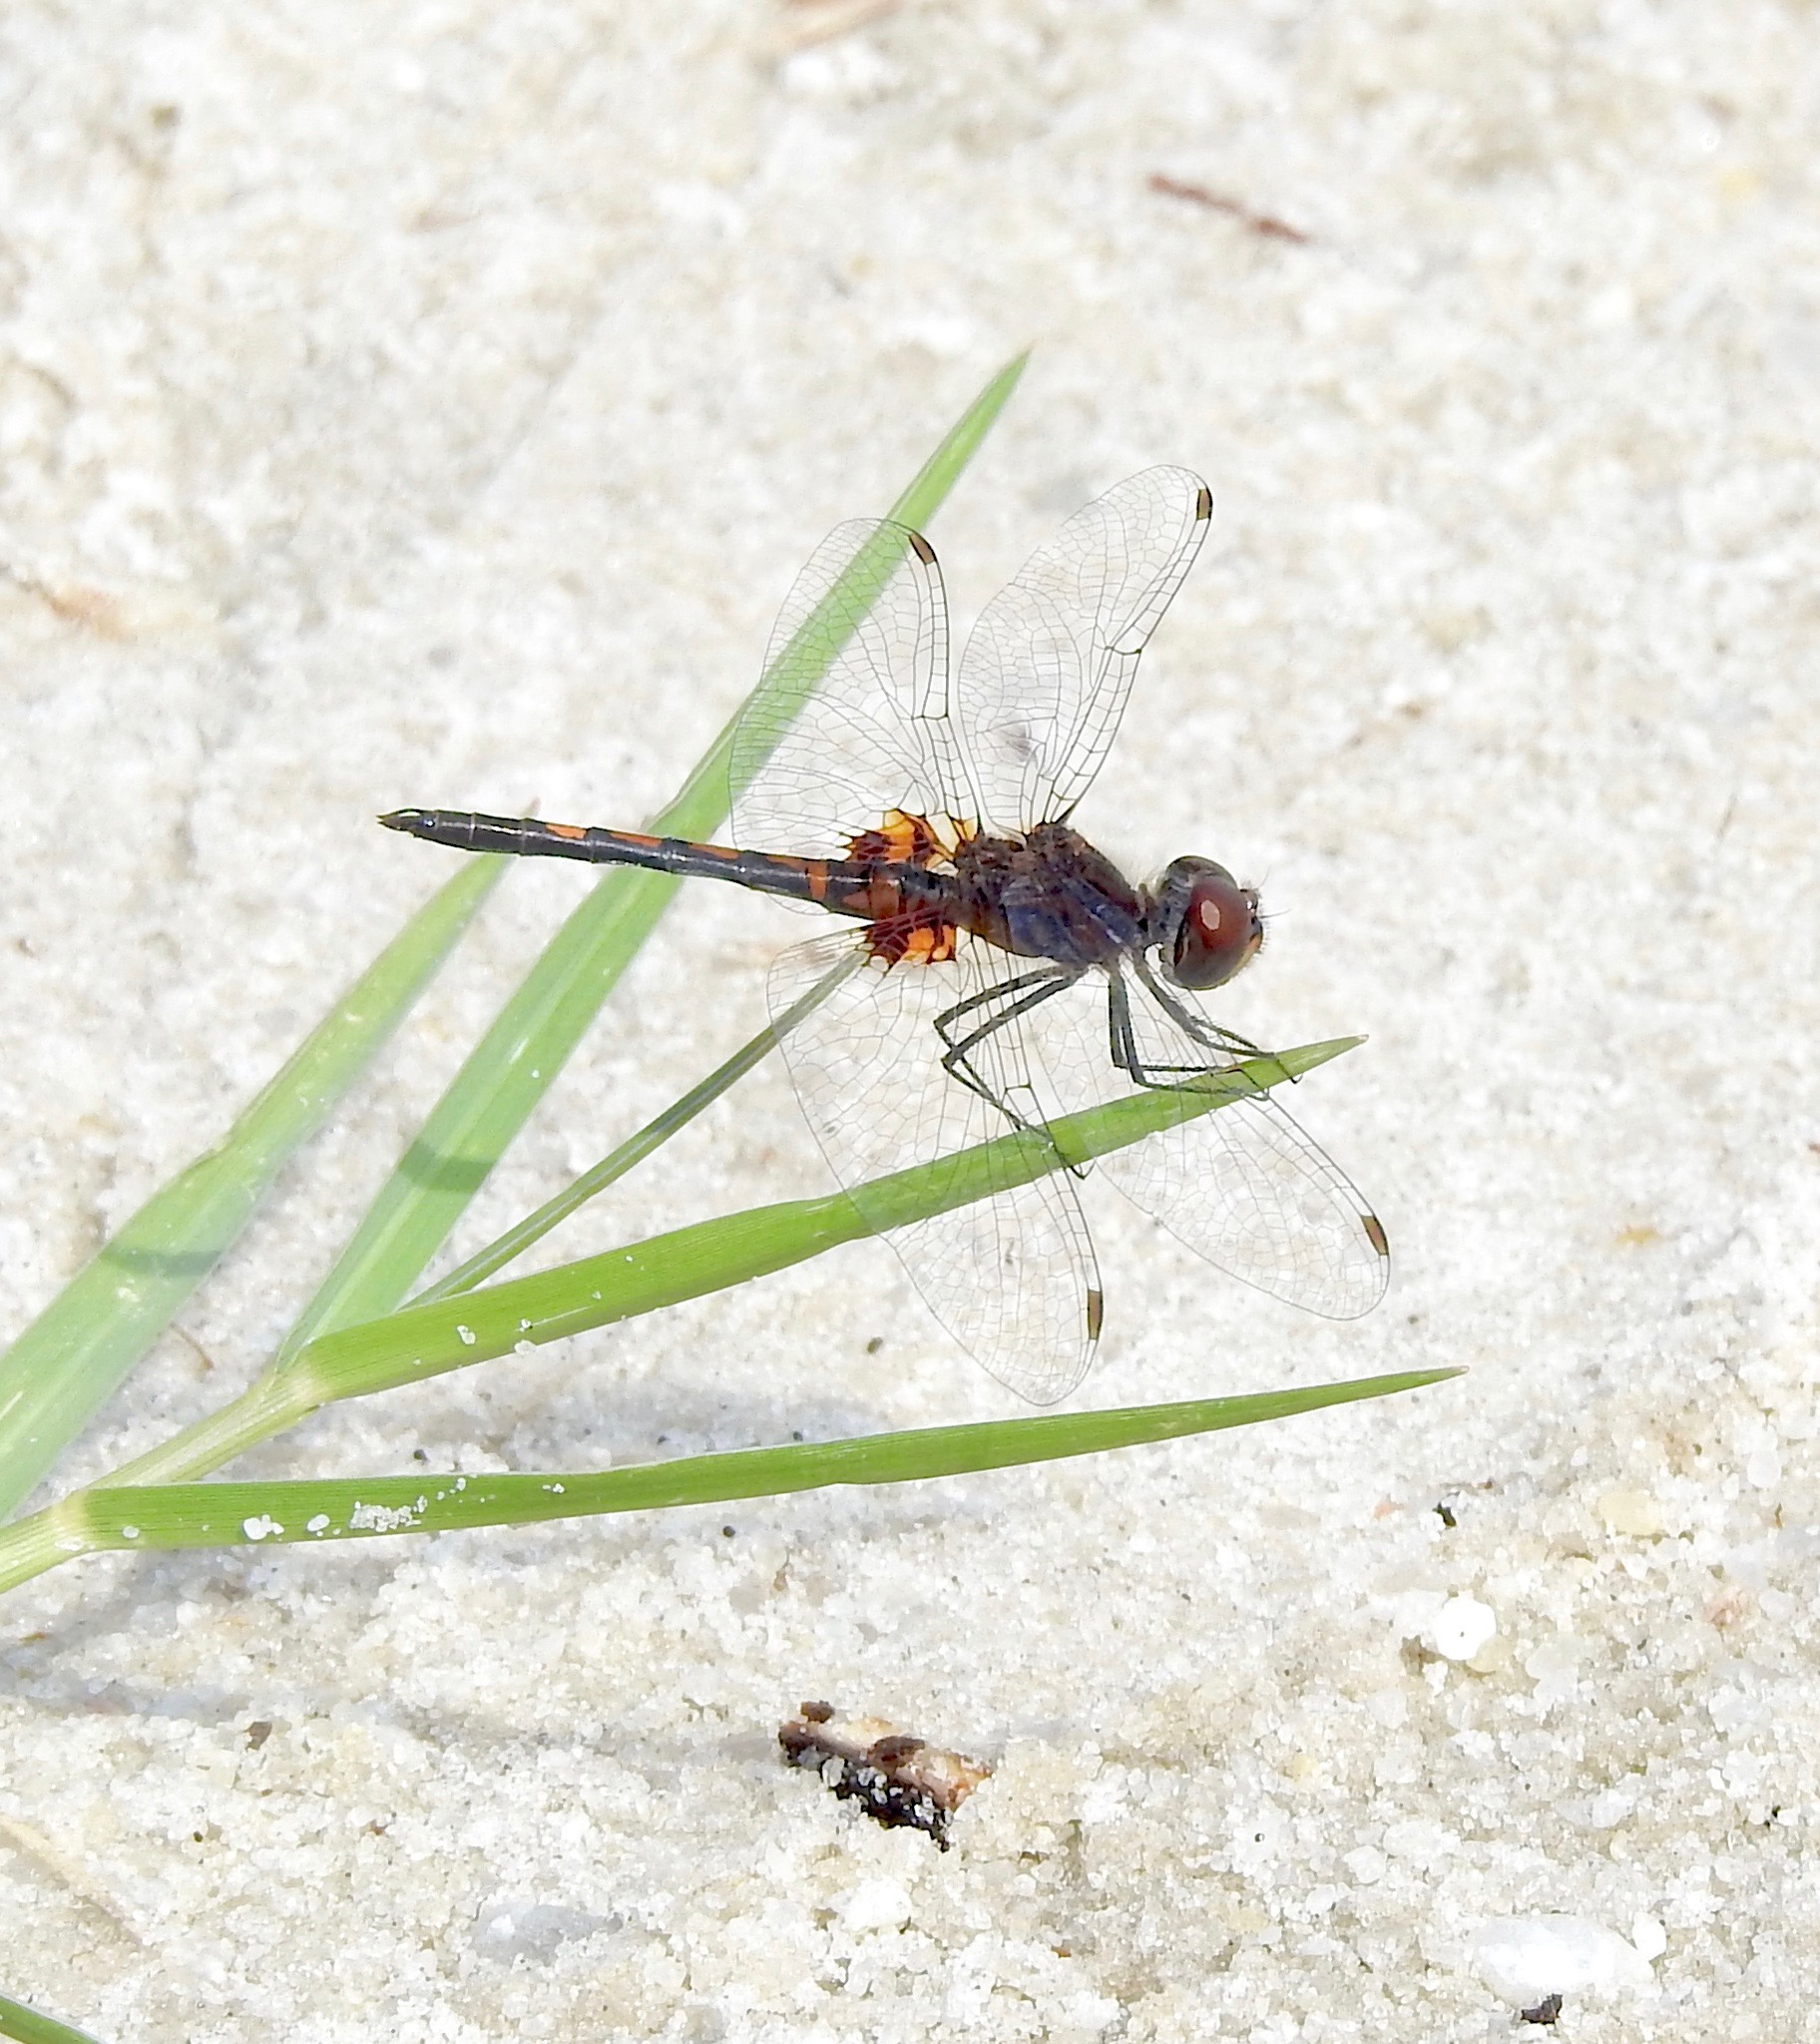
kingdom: Animalia
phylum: Arthropoda
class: Insecta
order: Odonata
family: Libellulidae
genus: Celithemis
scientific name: Celithemis ornata
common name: Ornate pennant
